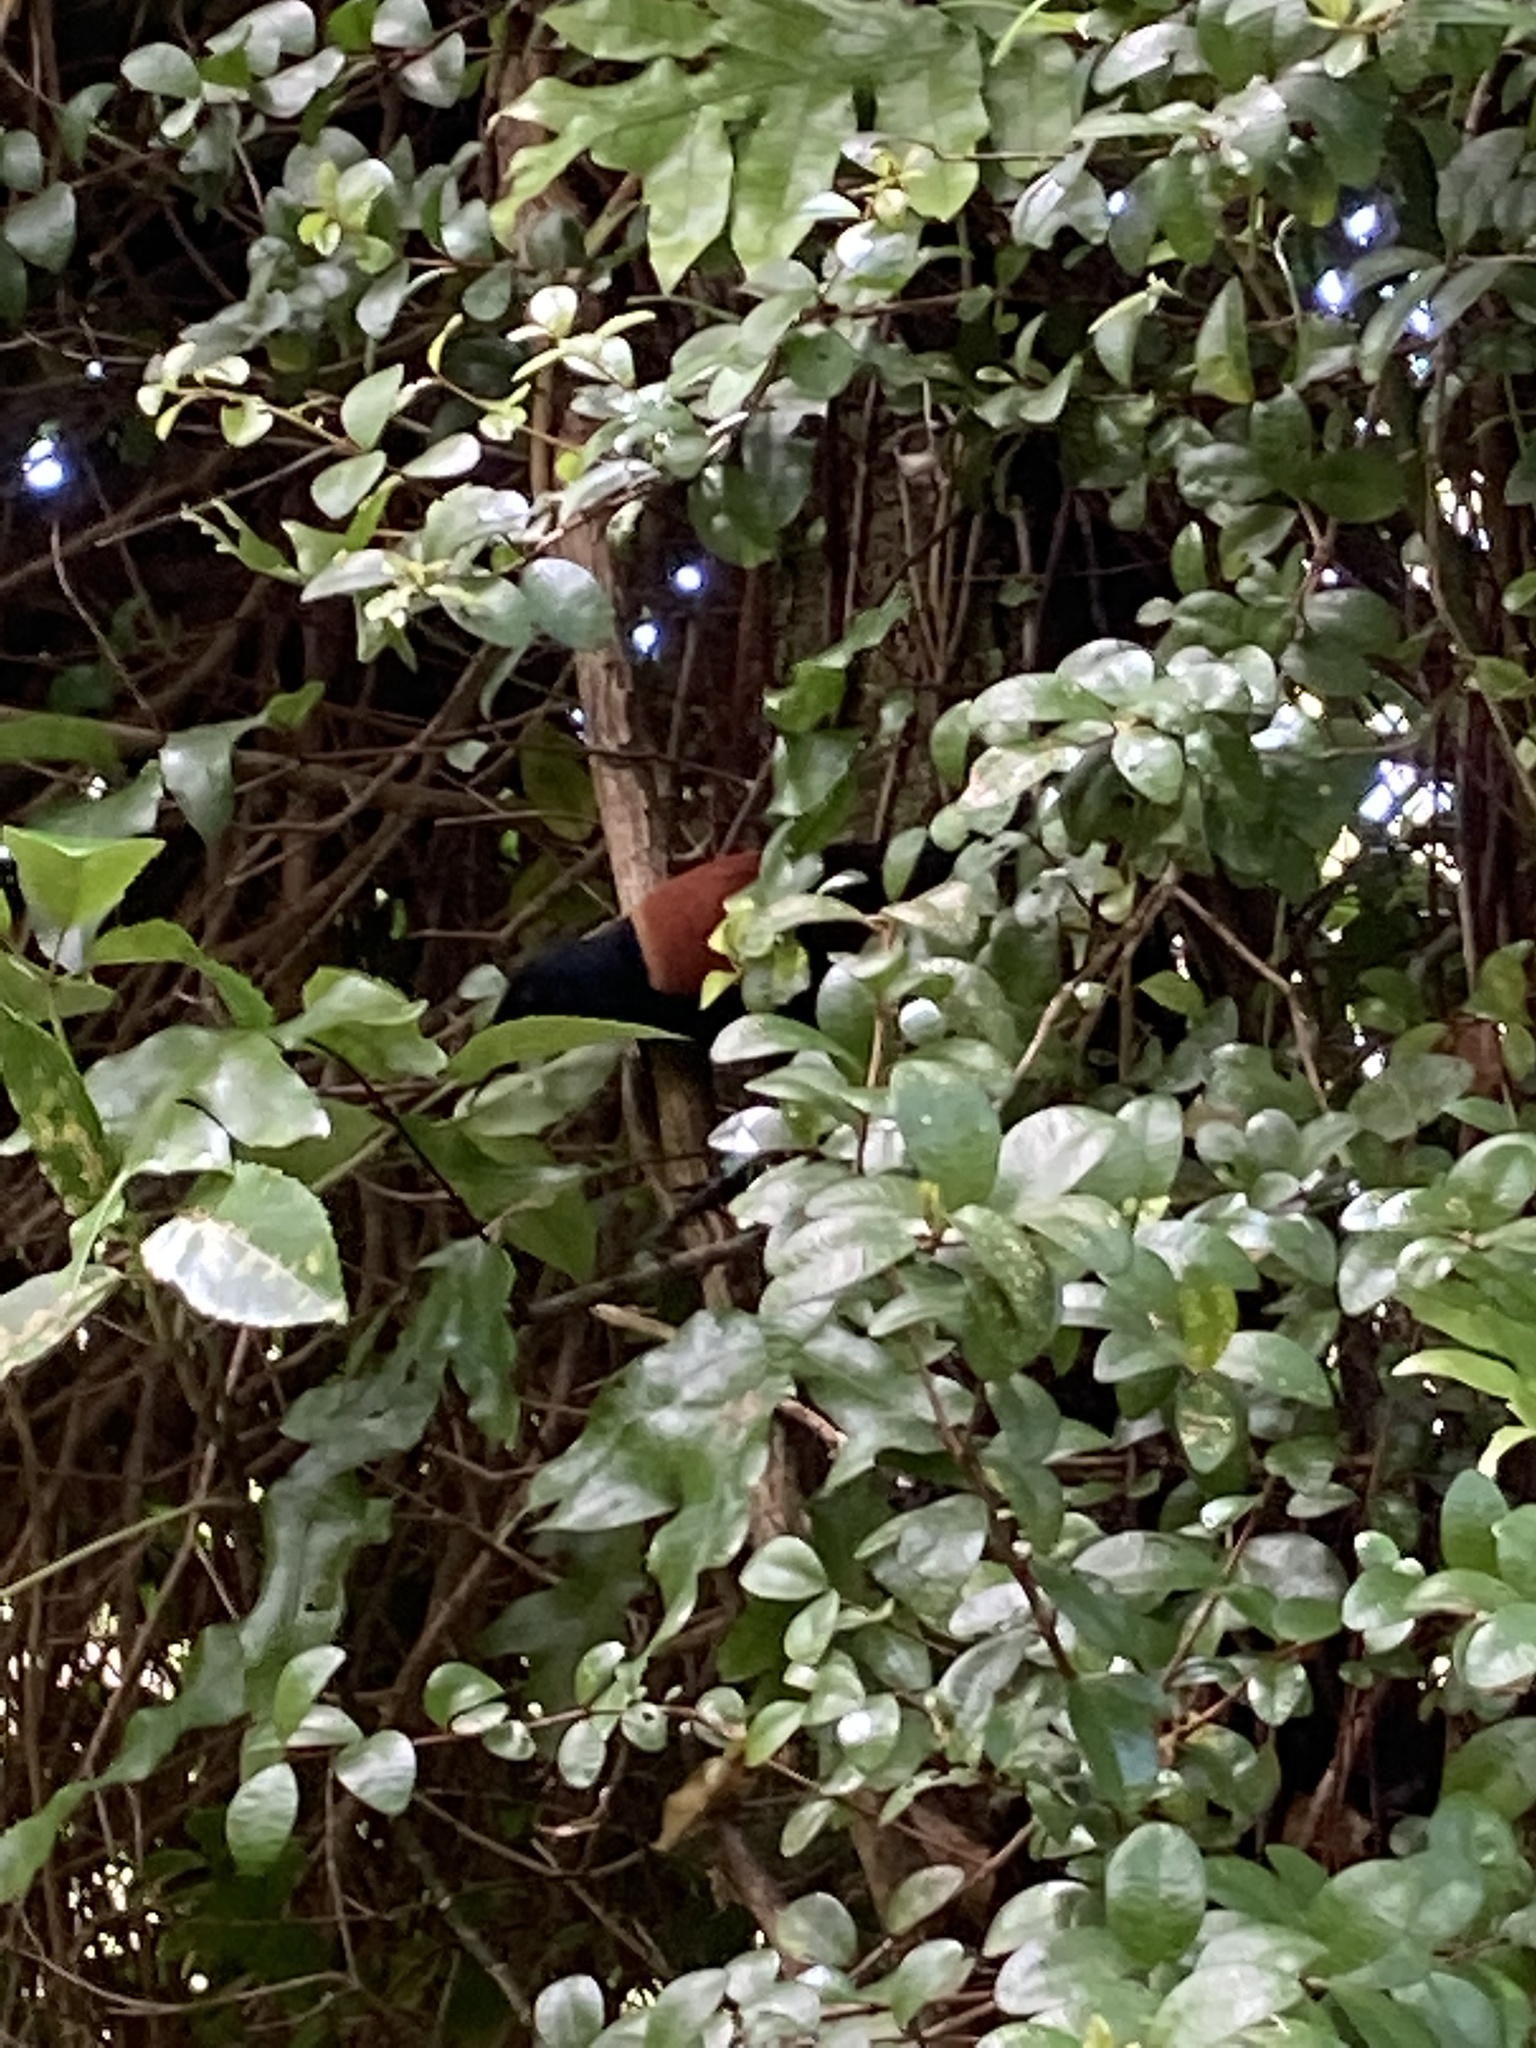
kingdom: Animalia
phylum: Chordata
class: Aves
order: Passeriformes
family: Callaeatidae
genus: Philesturnus
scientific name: Philesturnus carunculatus
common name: South island saddleback
